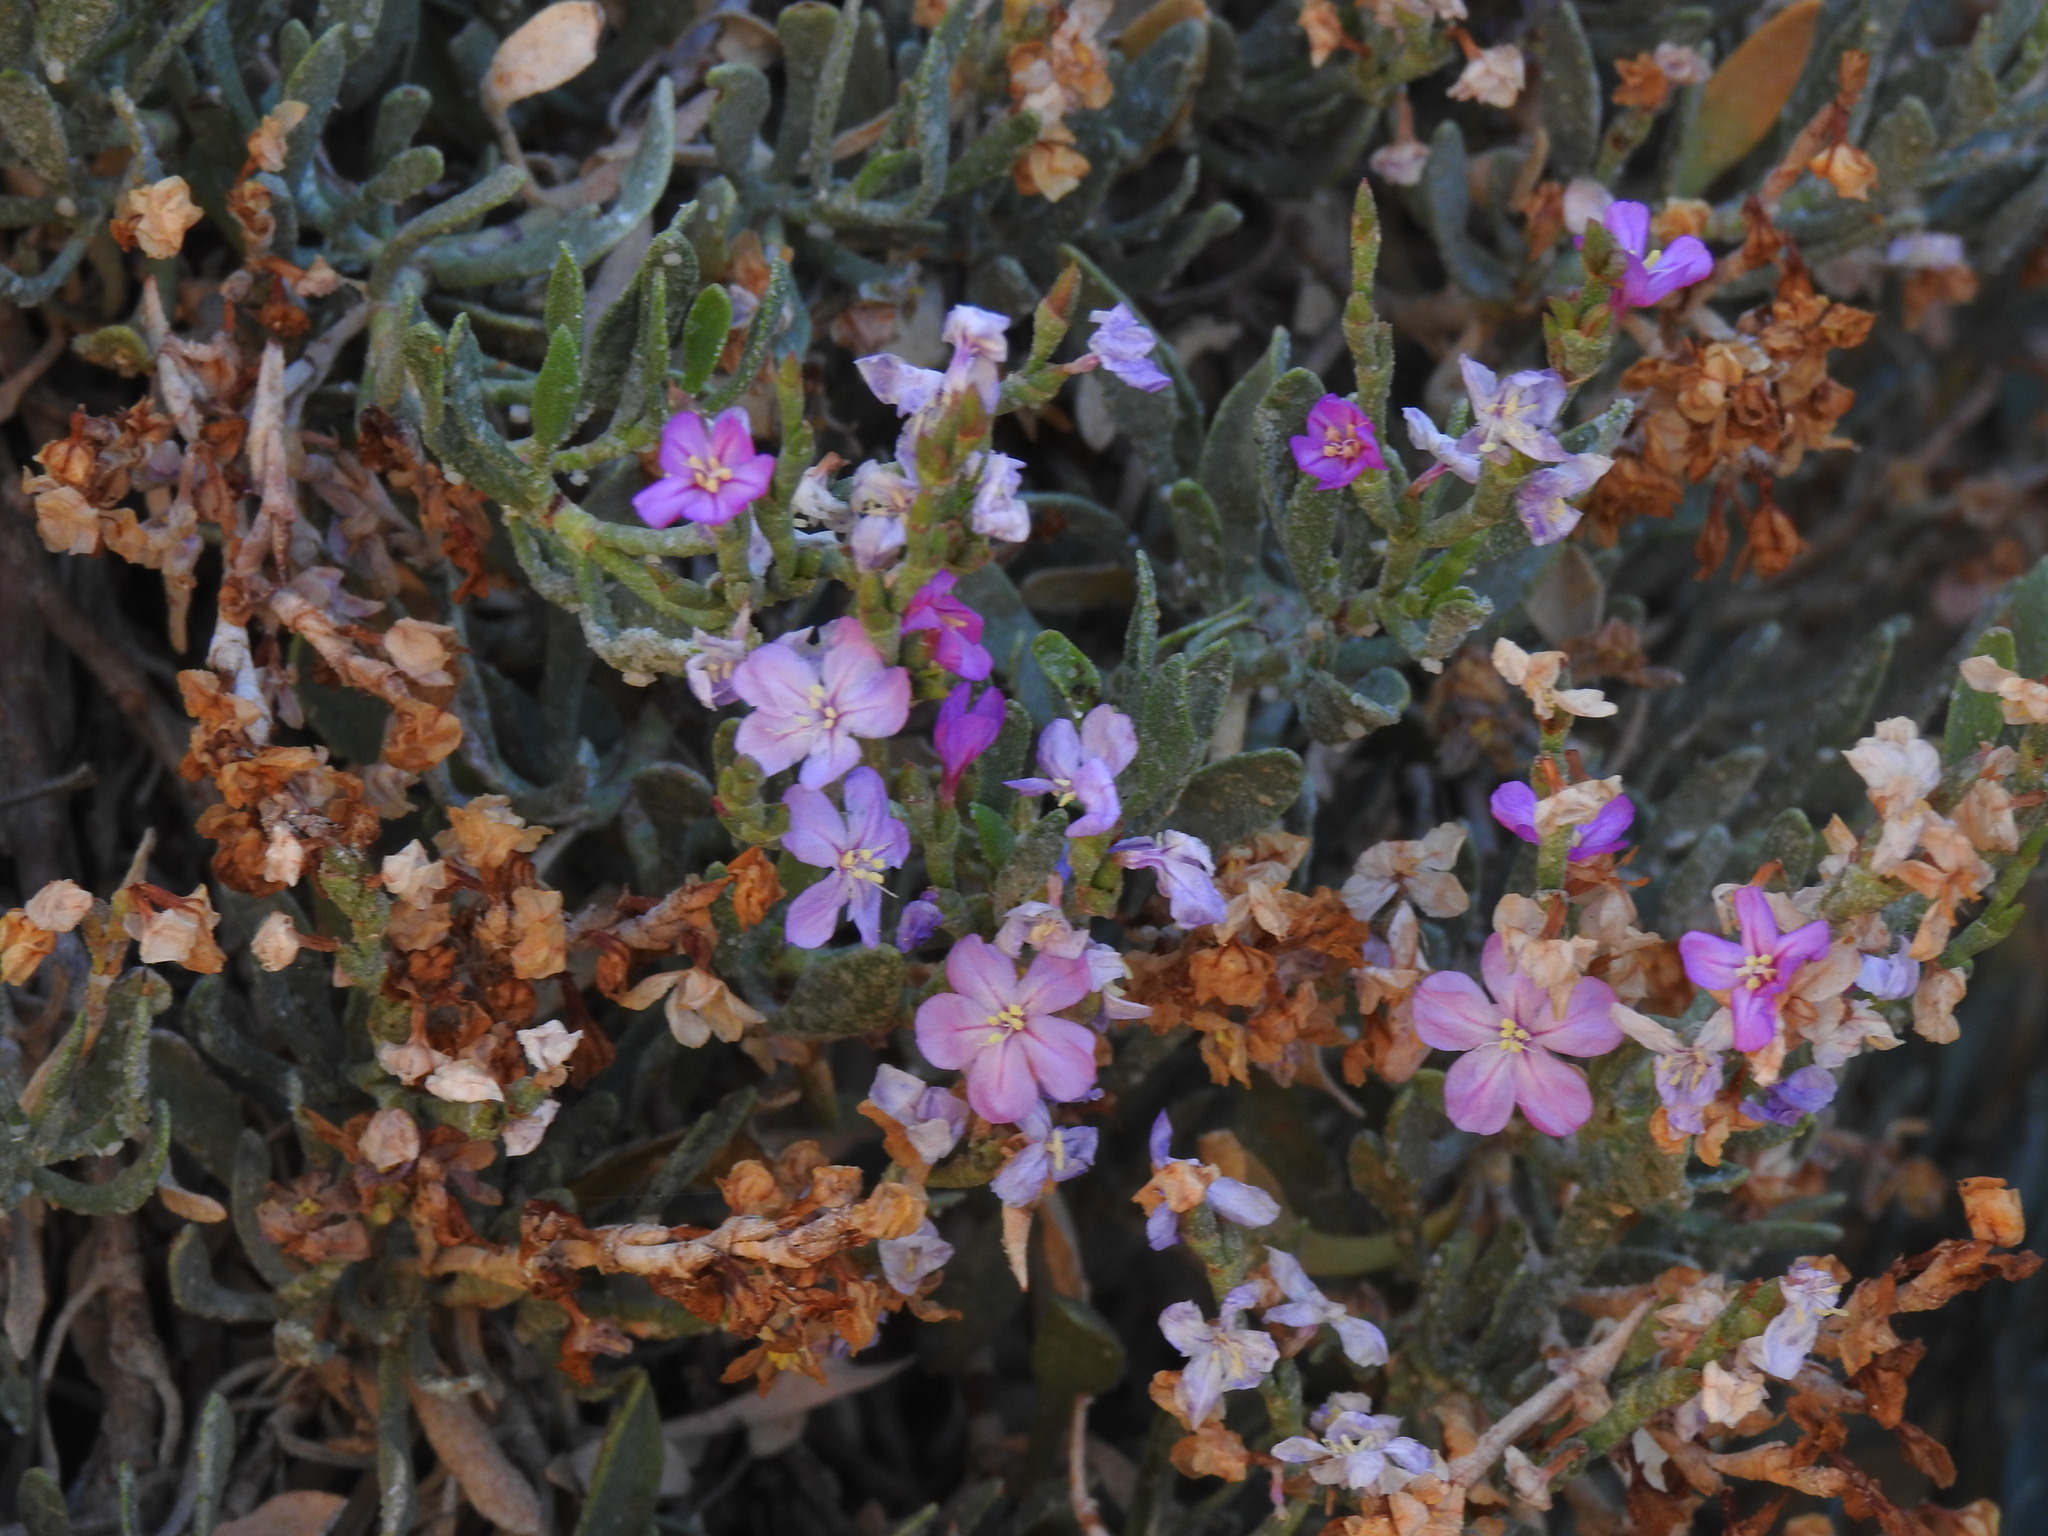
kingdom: Plantae
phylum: Tracheophyta
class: Magnoliopsida
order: Caryophyllales
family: Plumbaginaceae
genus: Limoniastrum
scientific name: Limoniastrum monopetalum
